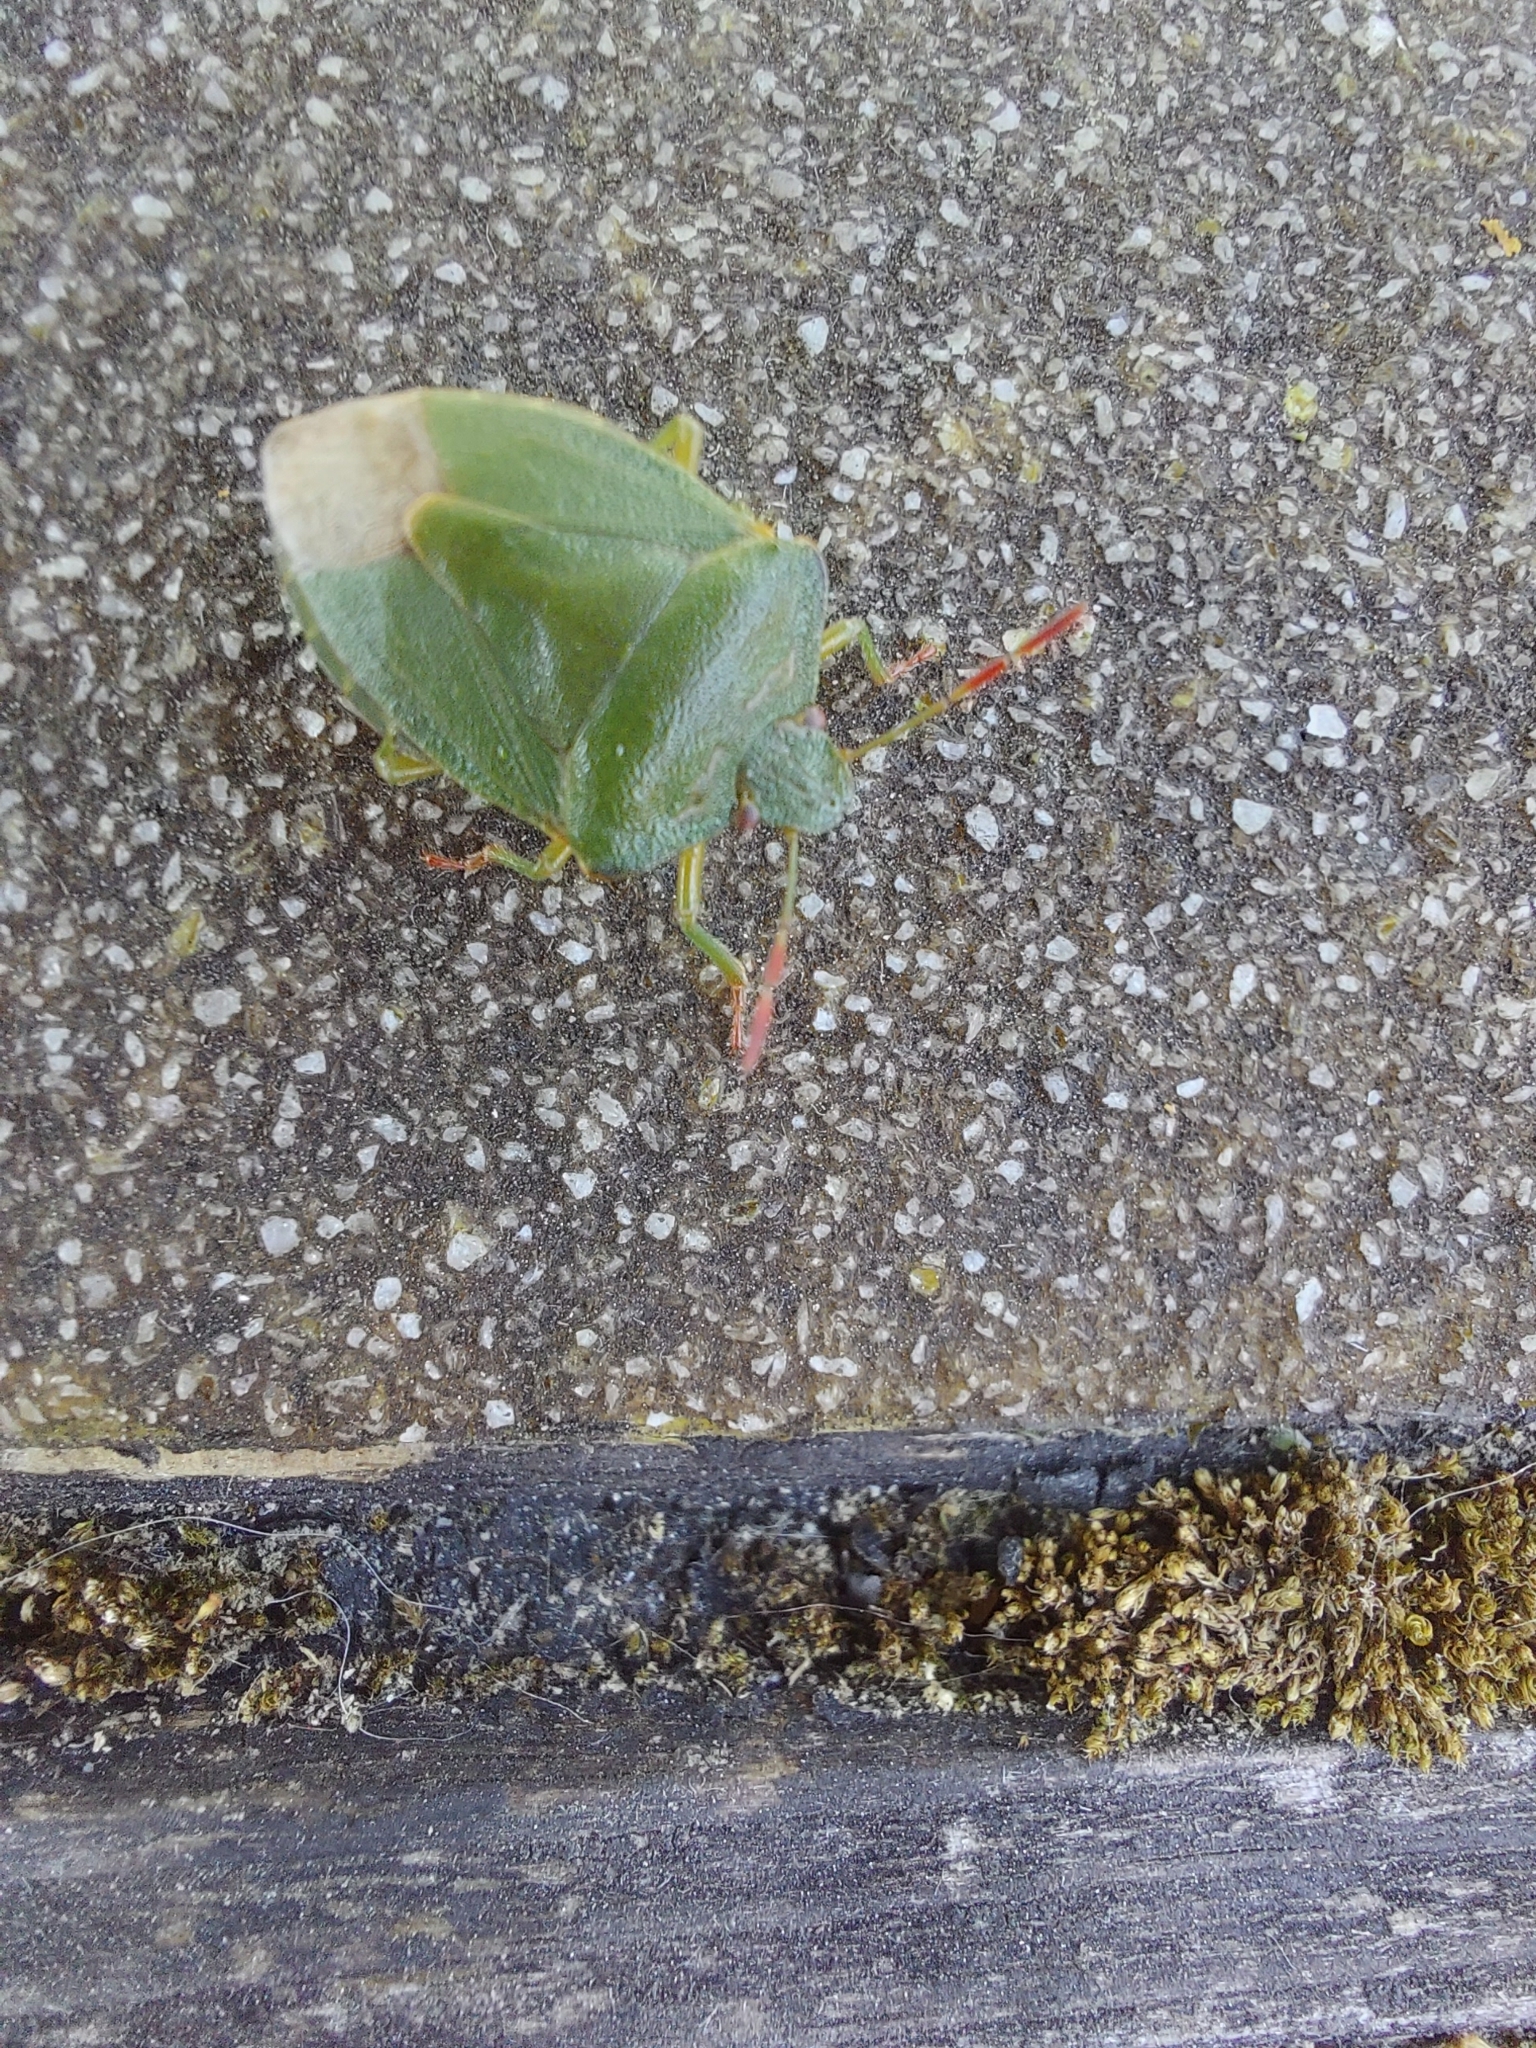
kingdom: Animalia
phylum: Arthropoda
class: Insecta
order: Hemiptera
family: Pentatomidae
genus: Palomena
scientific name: Palomena prasina
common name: Green shieldbug
